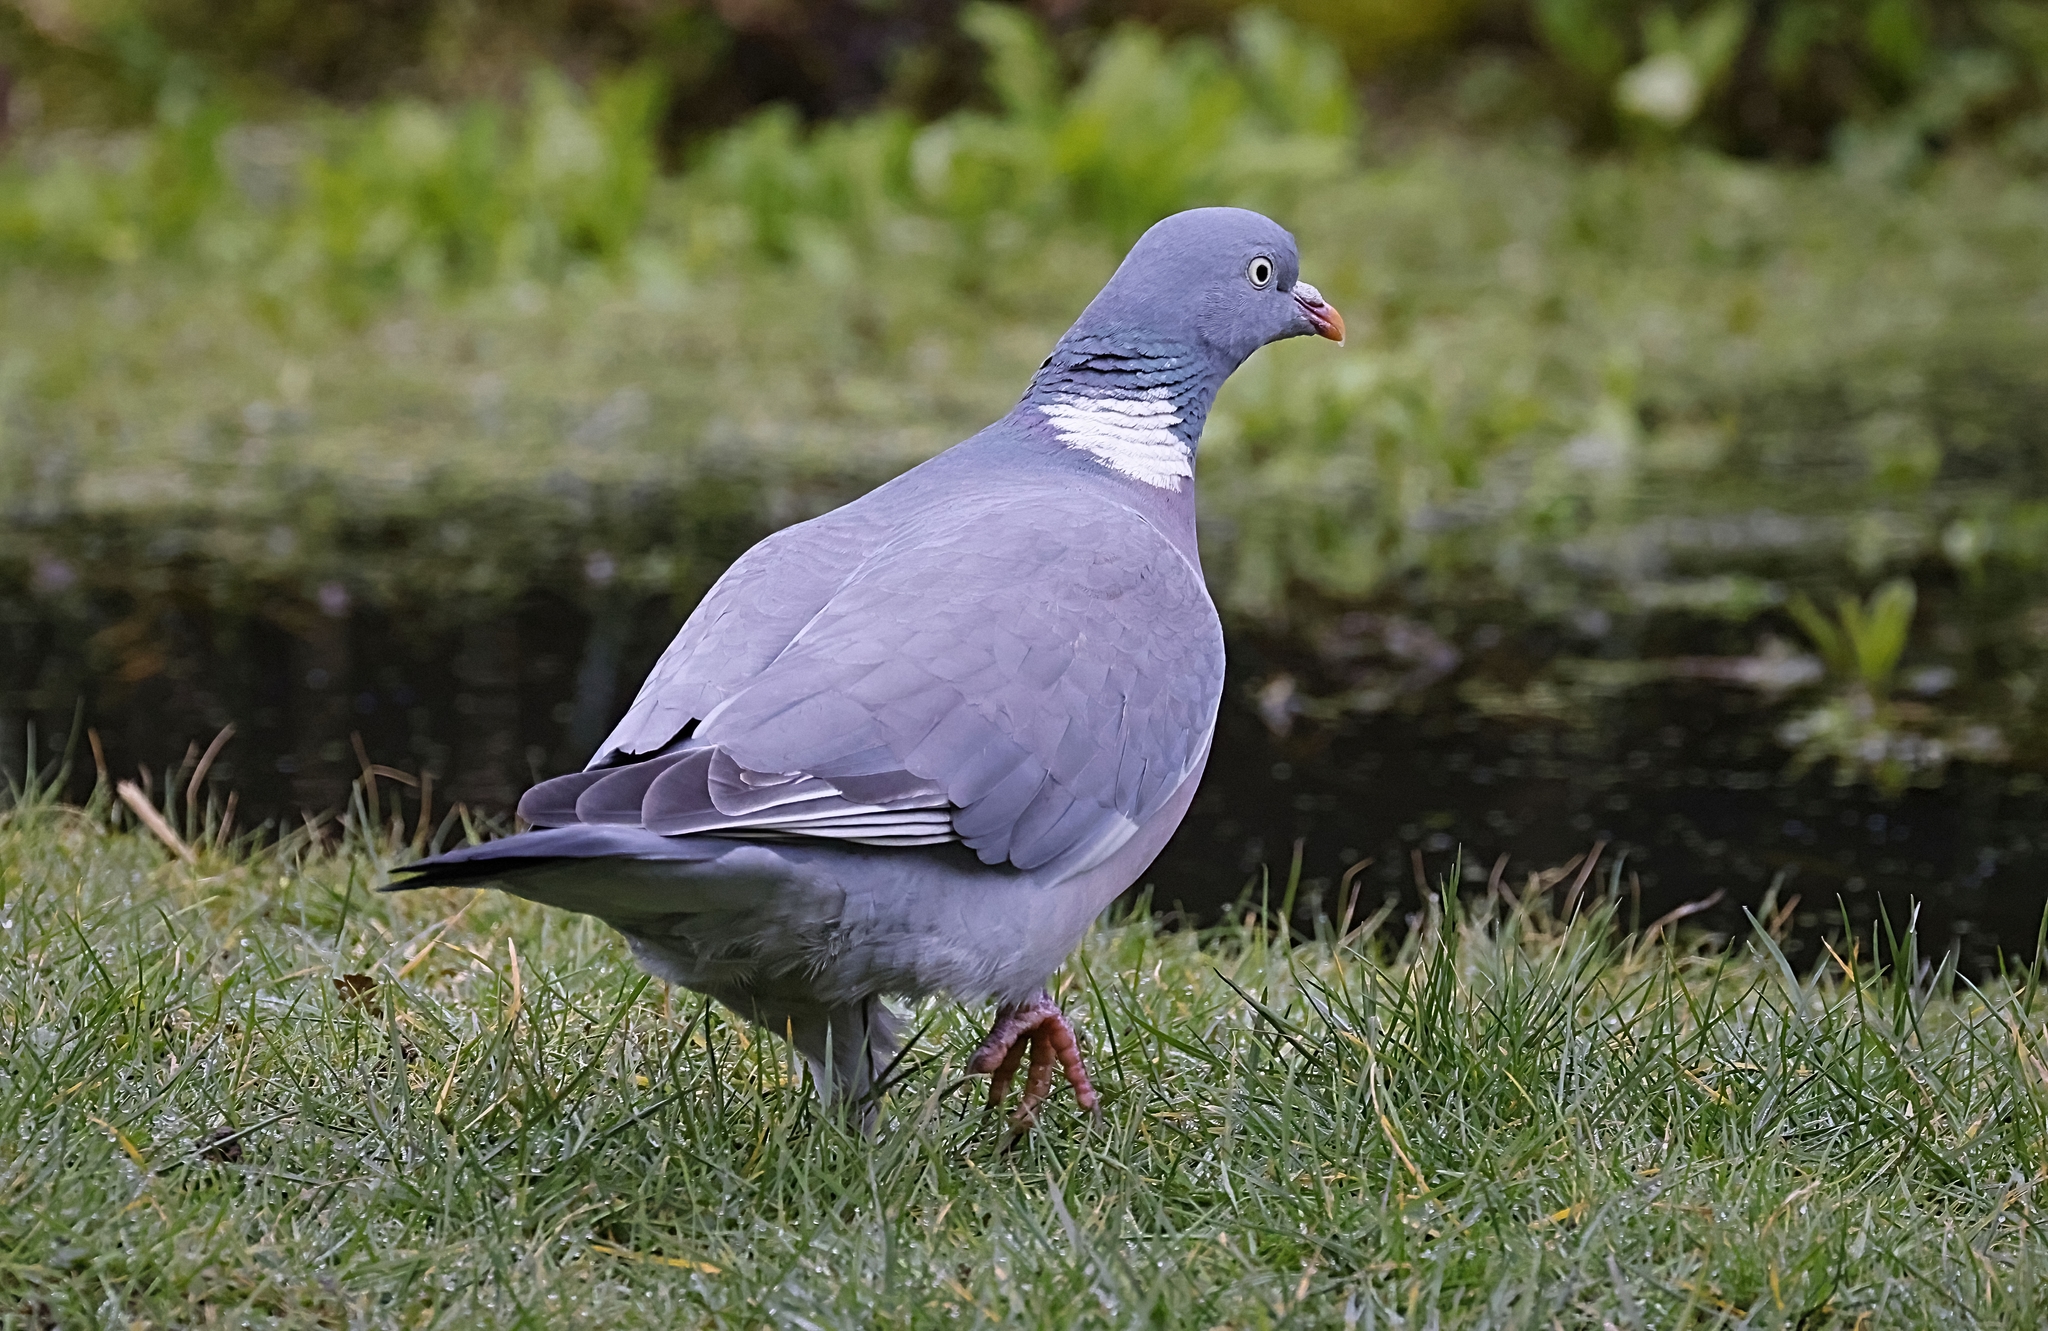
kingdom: Animalia
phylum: Chordata
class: Aves
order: Columbiformes
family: Columbidae
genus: Columba
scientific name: Columba palumbus
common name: Common wood pigeon
